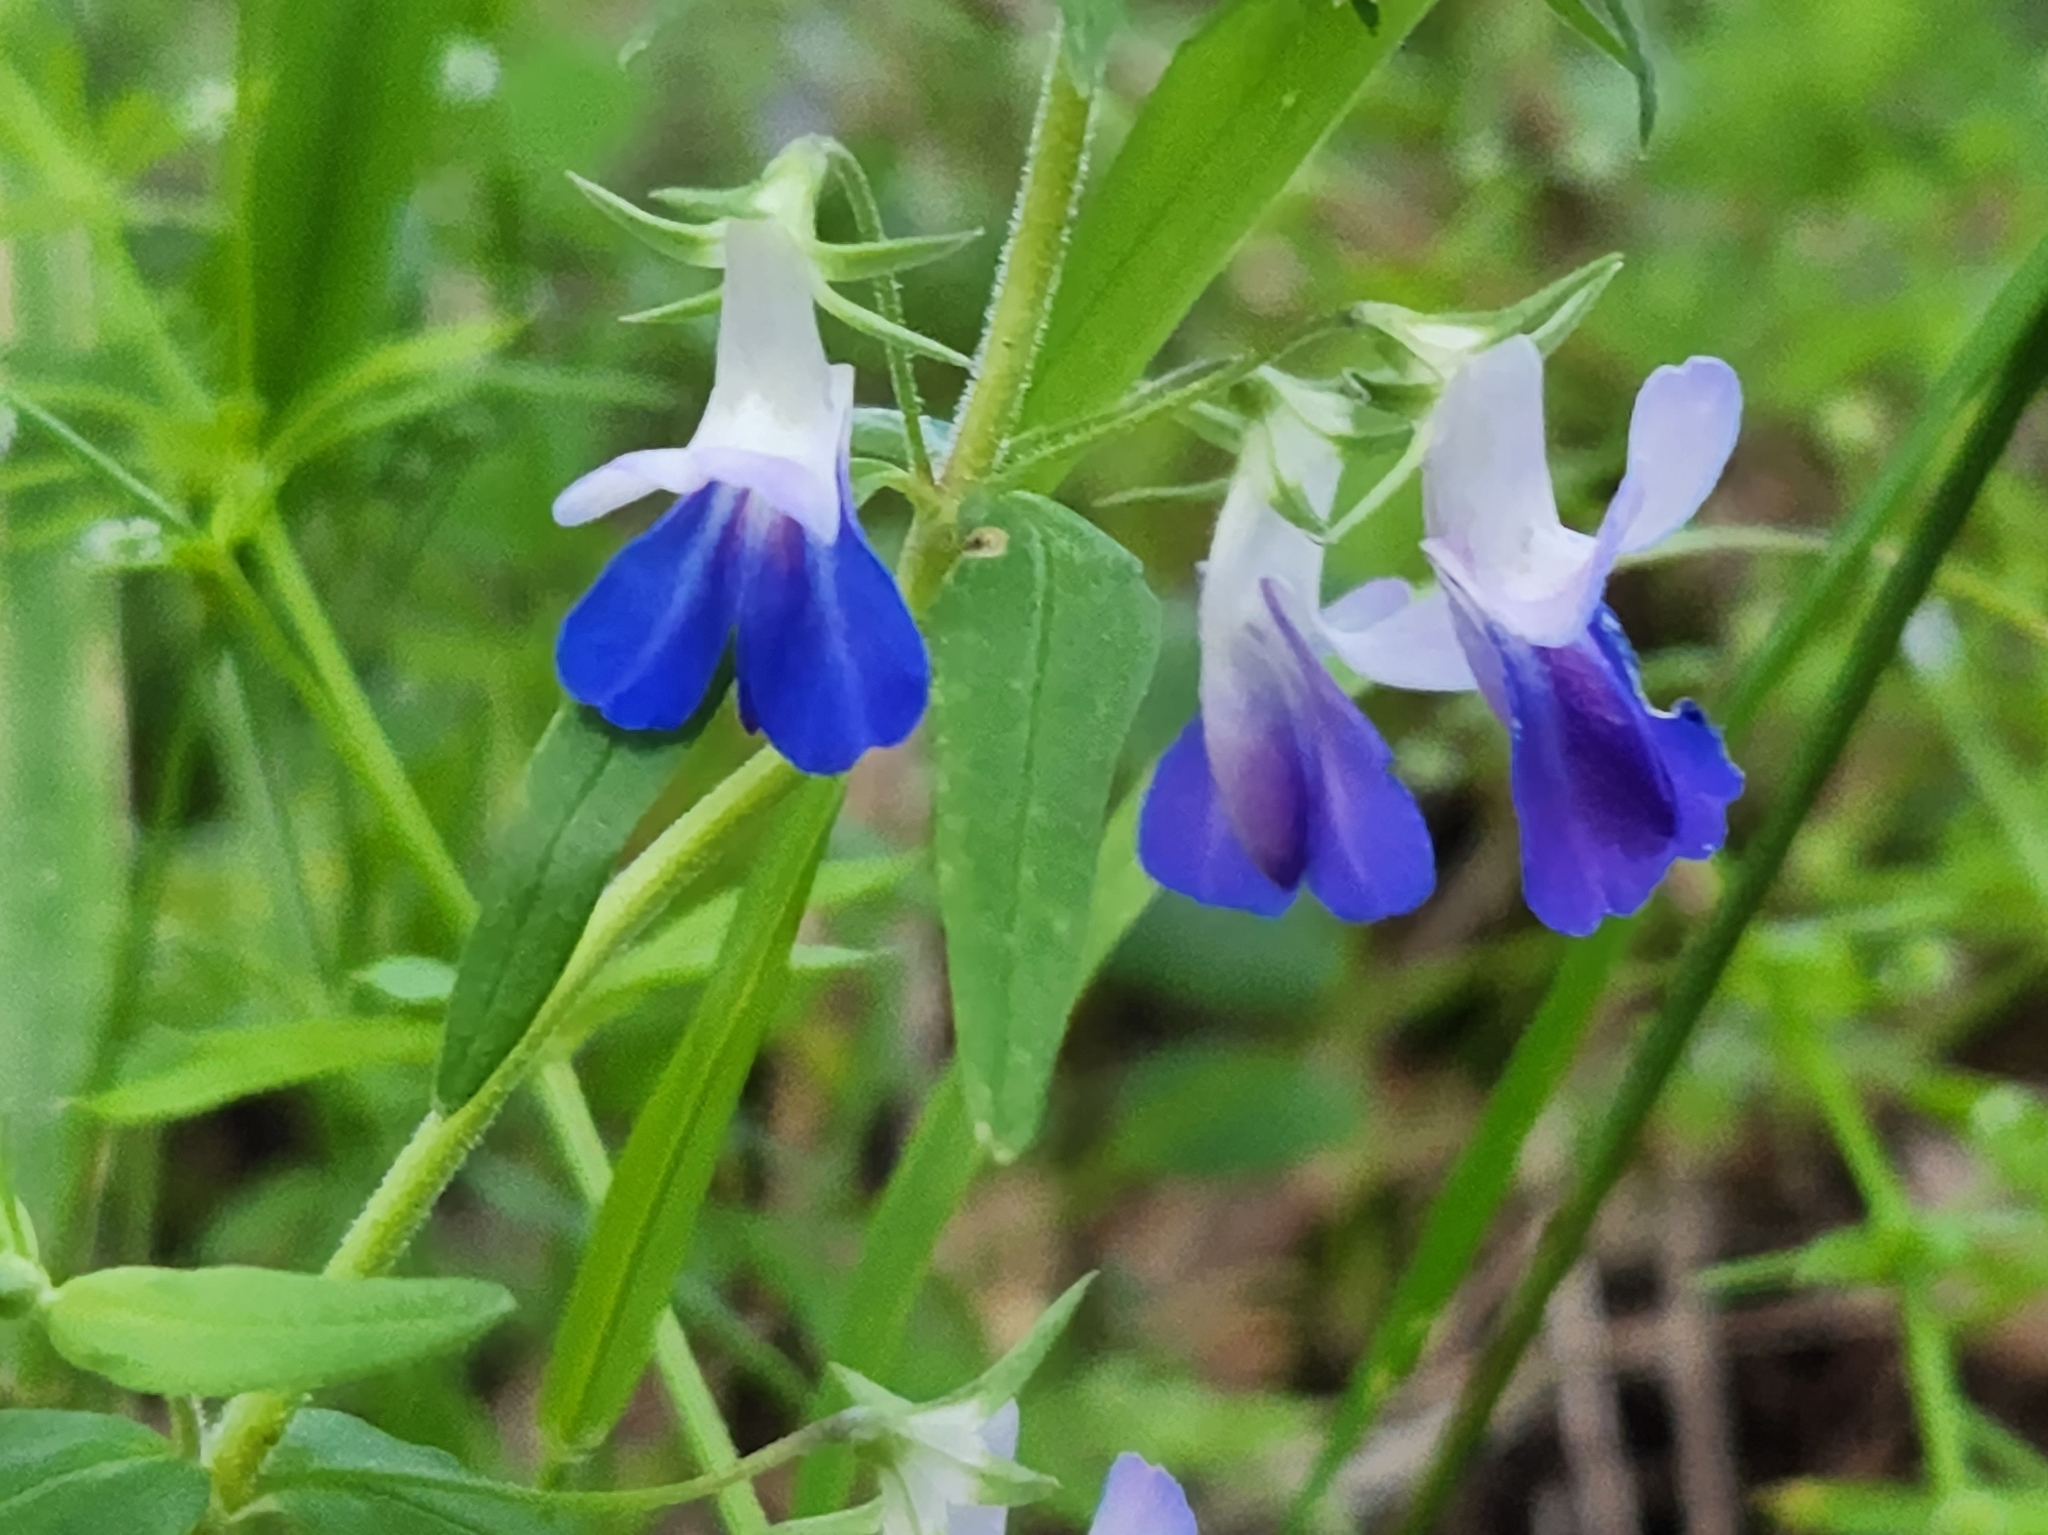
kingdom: Plantae
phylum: Tracheophyta
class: Magnoliopsida
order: Lamiales
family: Plantaginaceae
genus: Collinsia
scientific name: Collinsia grandiflora
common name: Large-flower blue-eyed-mary
